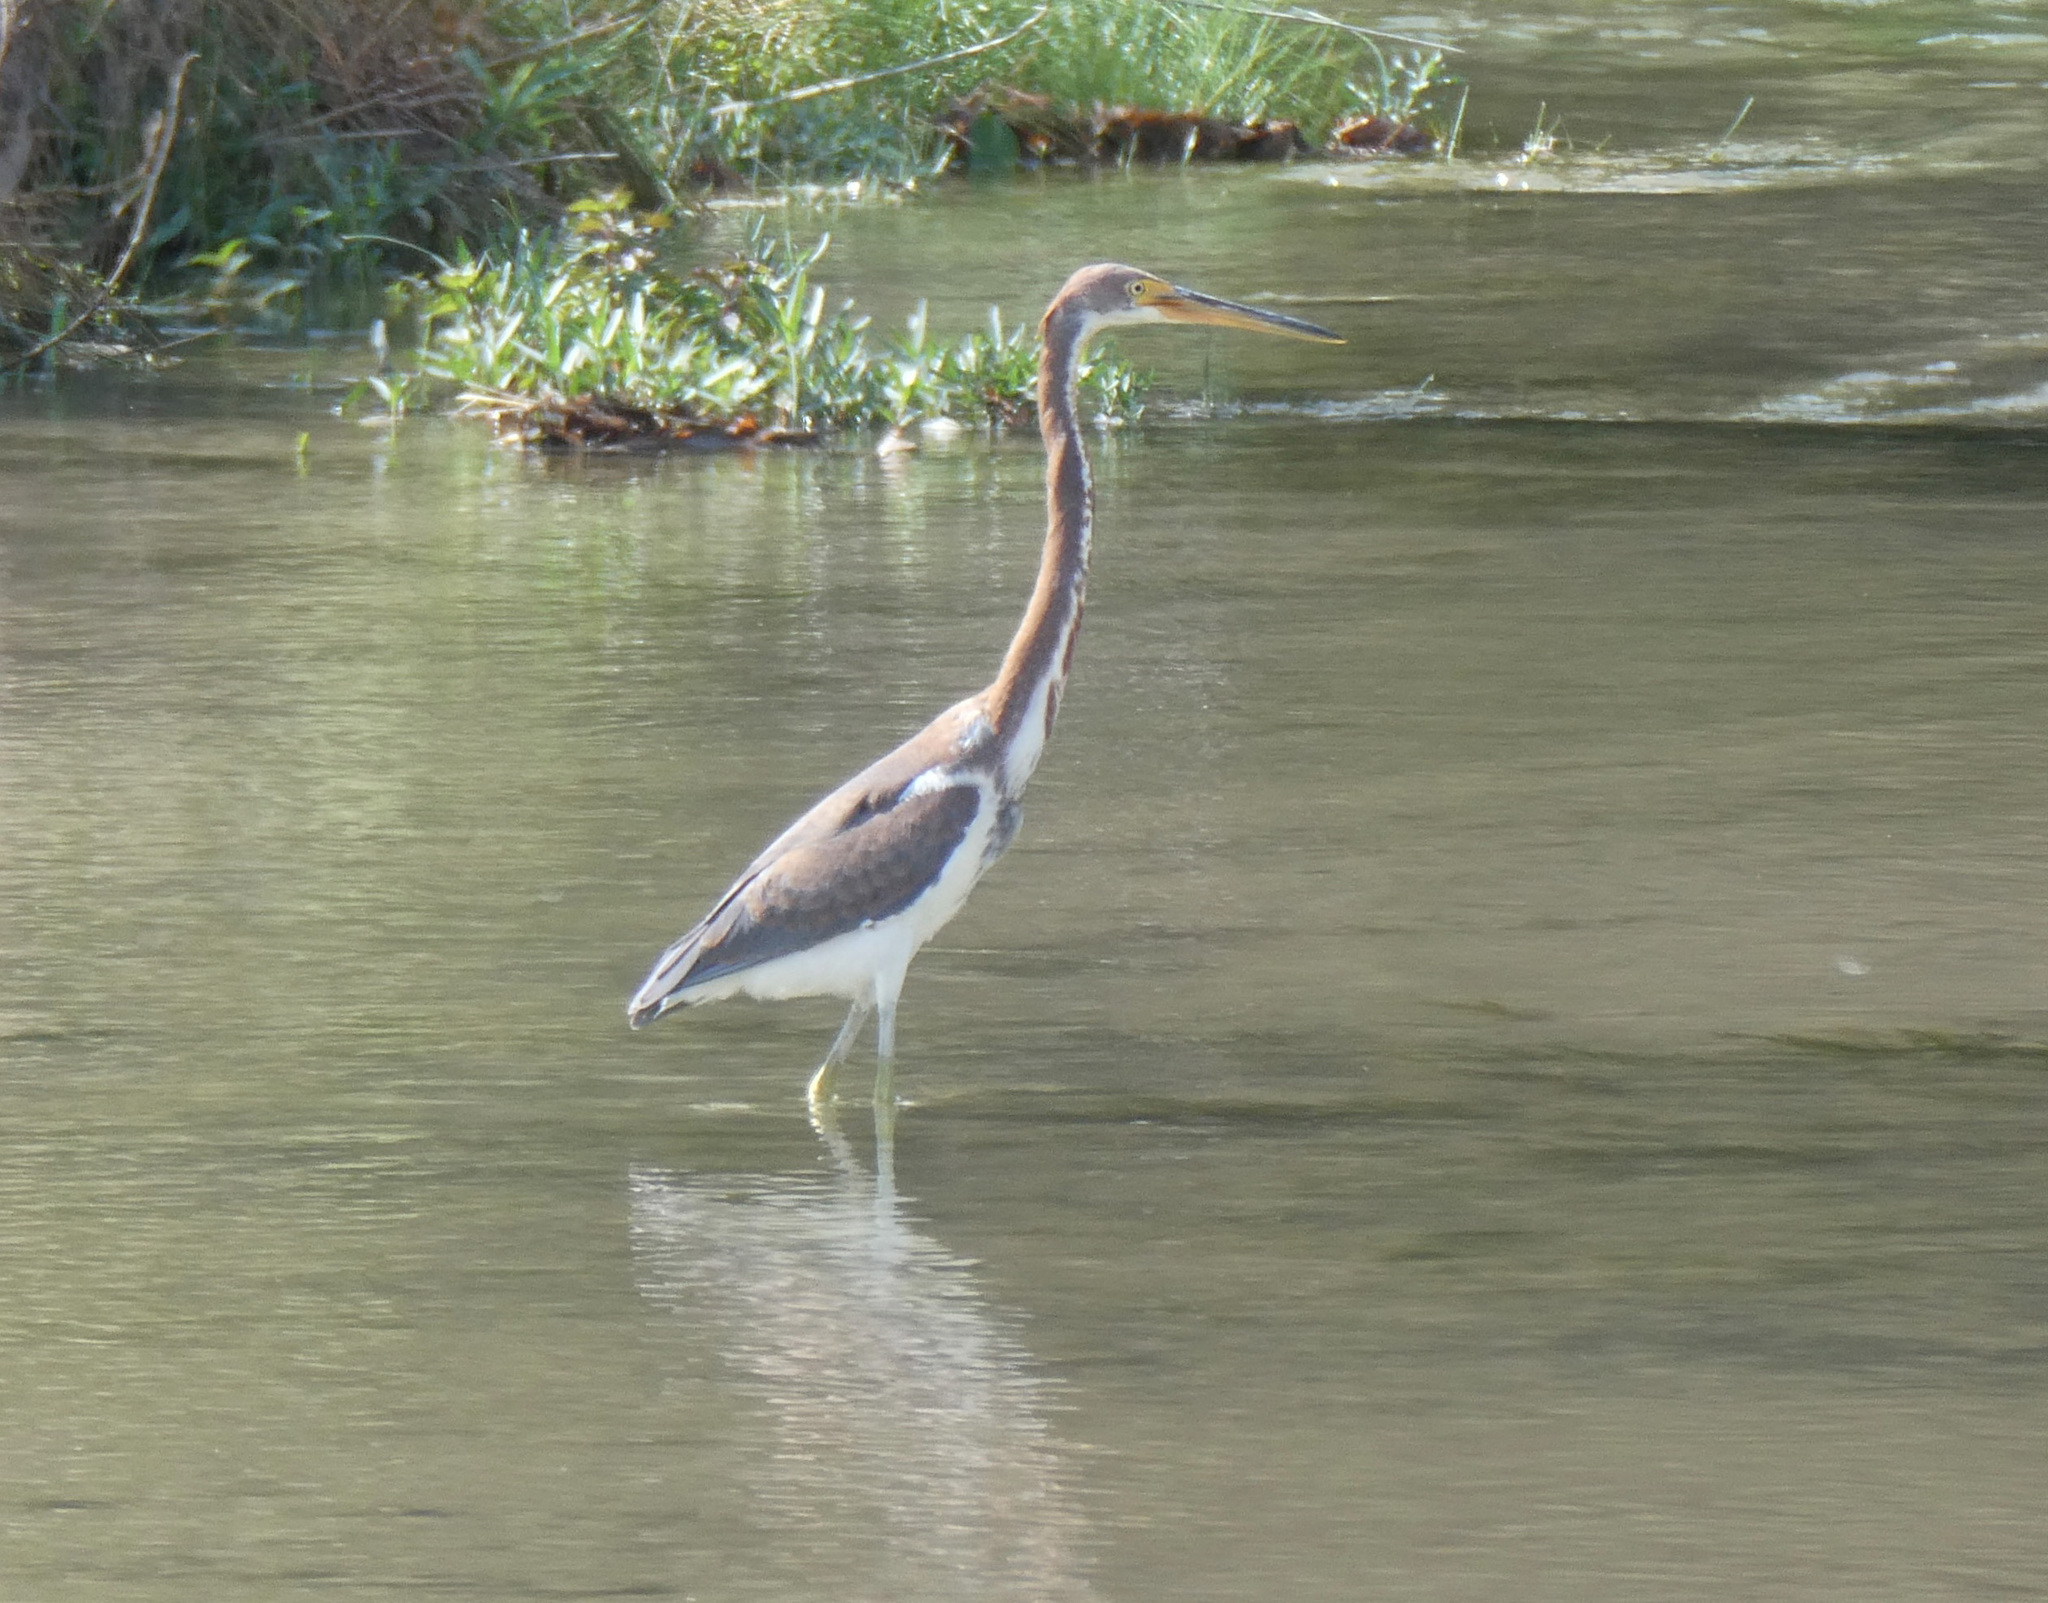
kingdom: Animalia
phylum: Chordata
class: Aves
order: Pelecaniformes
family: Ardeidae
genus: Egretta
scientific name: Egretta tricolor
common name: Tricolored heron
